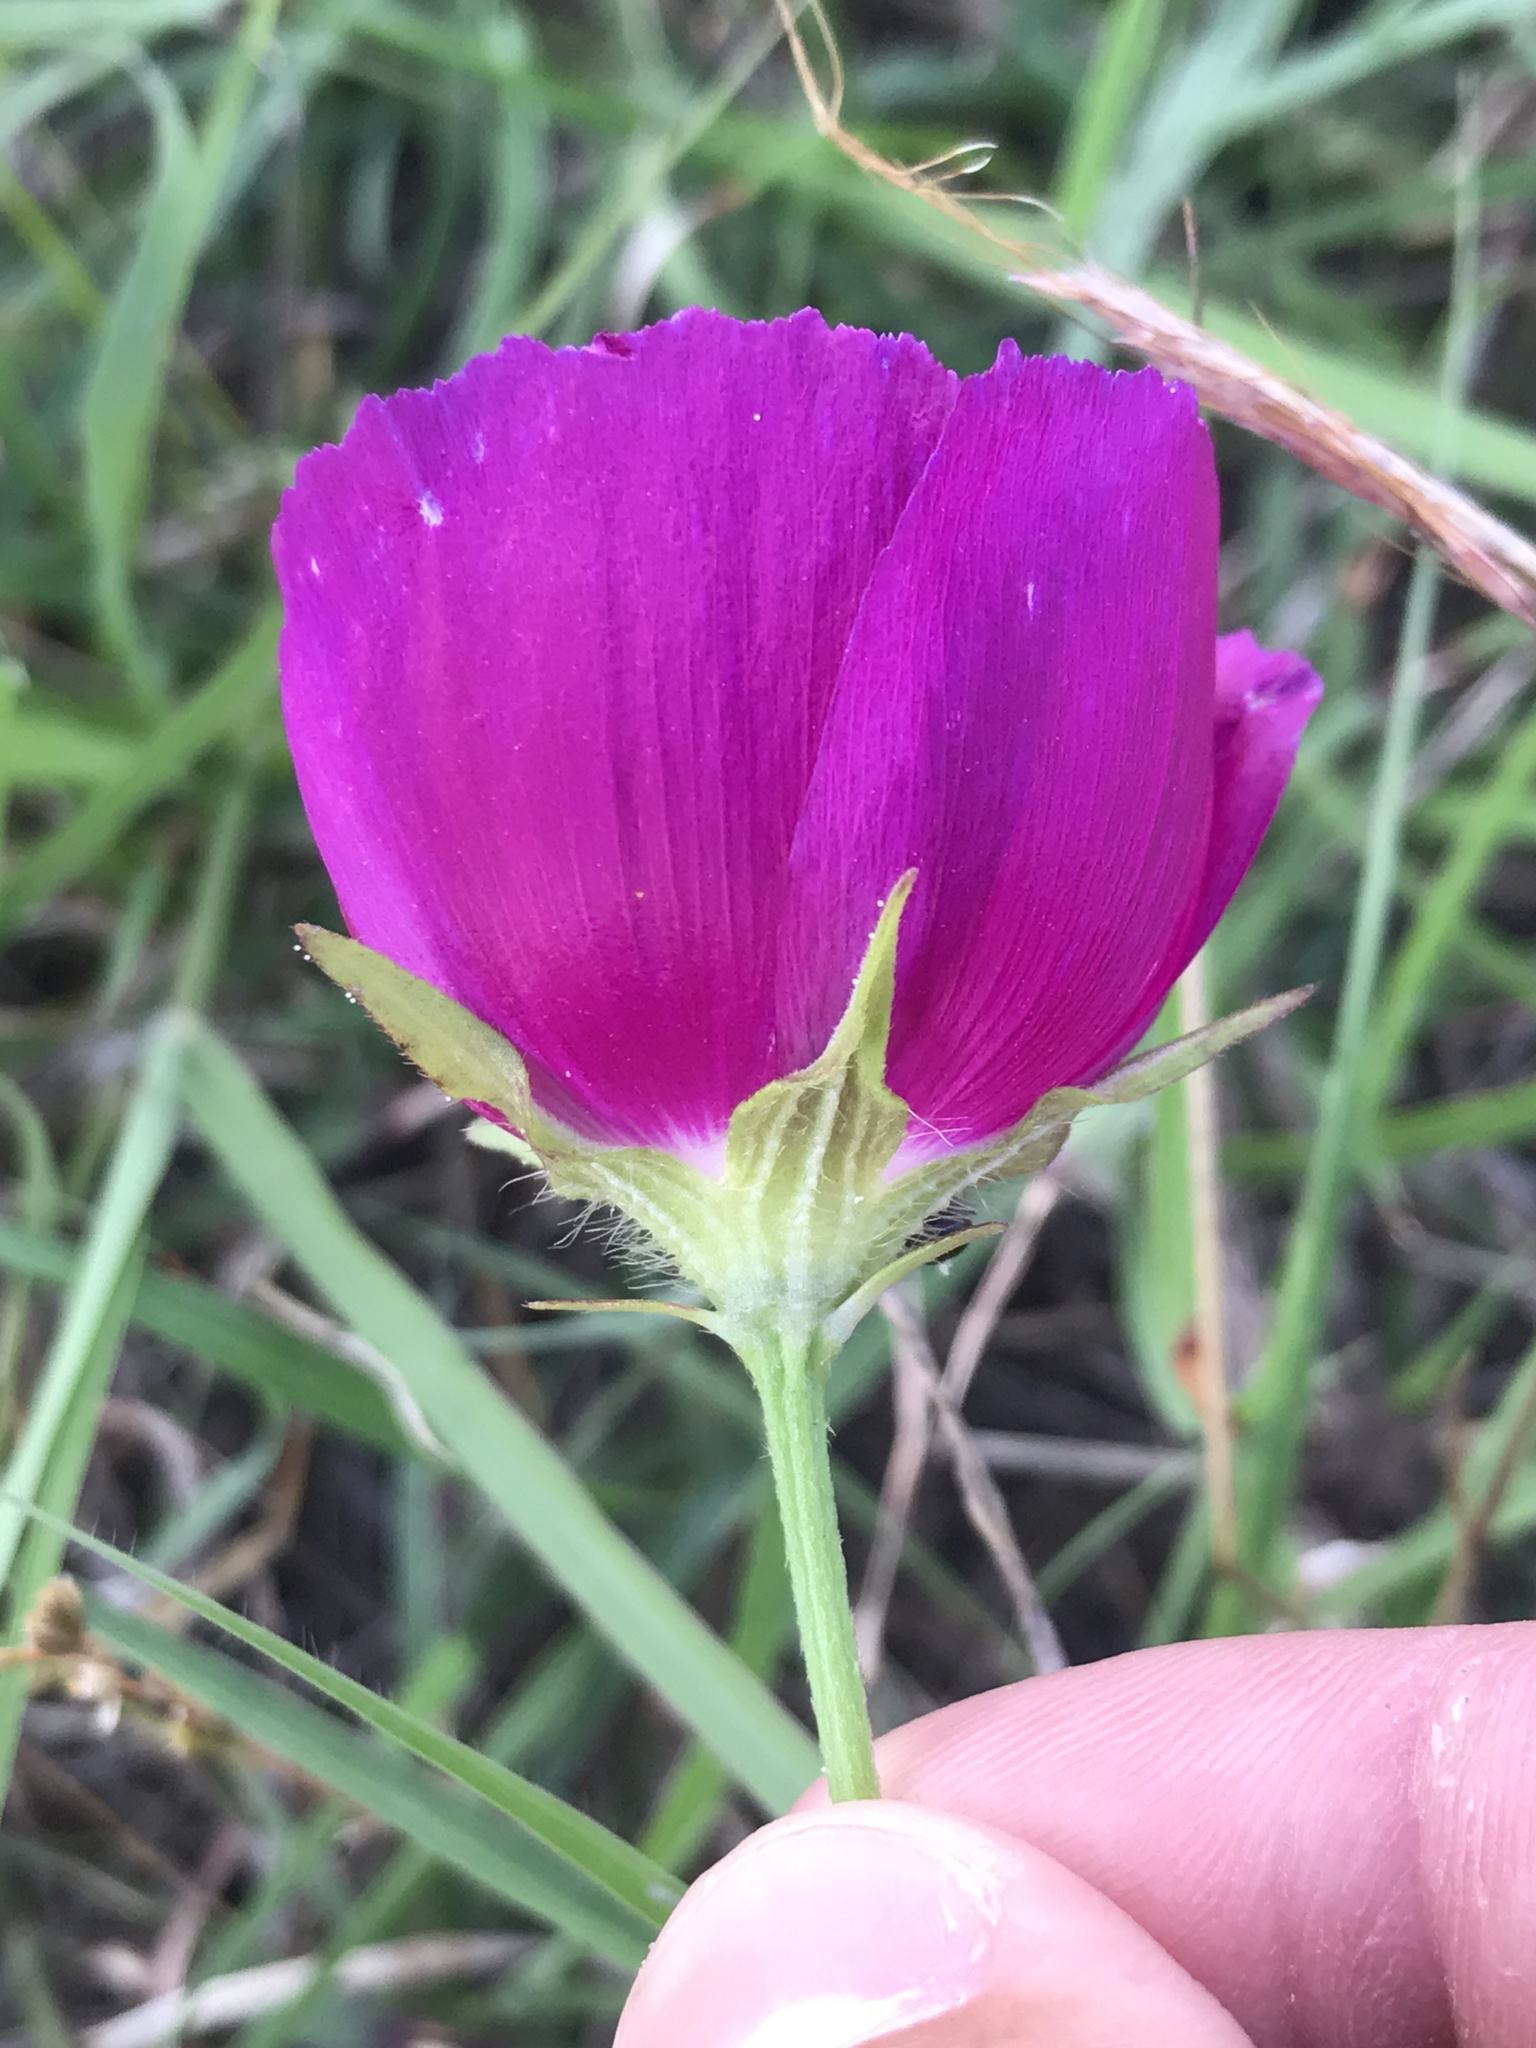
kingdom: Plantae
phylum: Tracheophyta
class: Magnoliopsida
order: Malvales
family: Malvaceae
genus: Callirhoe
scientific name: Callirhoe involucrata
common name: Purple poppy-mallow
